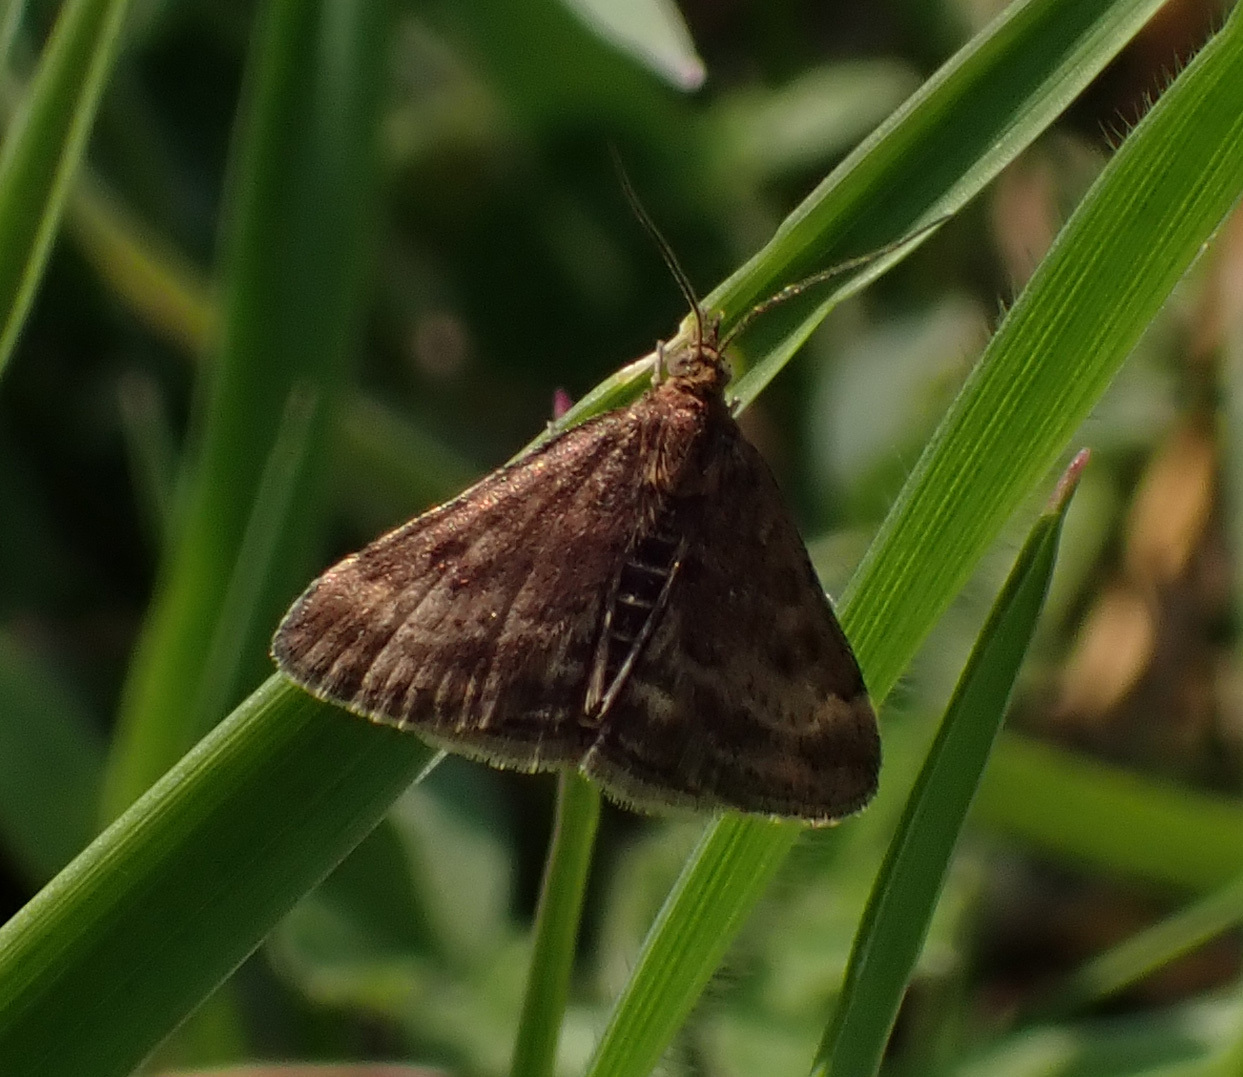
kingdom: Animalia
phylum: Arthropoda
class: Insecta
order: Lepidoptera
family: Crambidae
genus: Pyrausta
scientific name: Pyrausta despicata
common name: Straw-barred pearl
